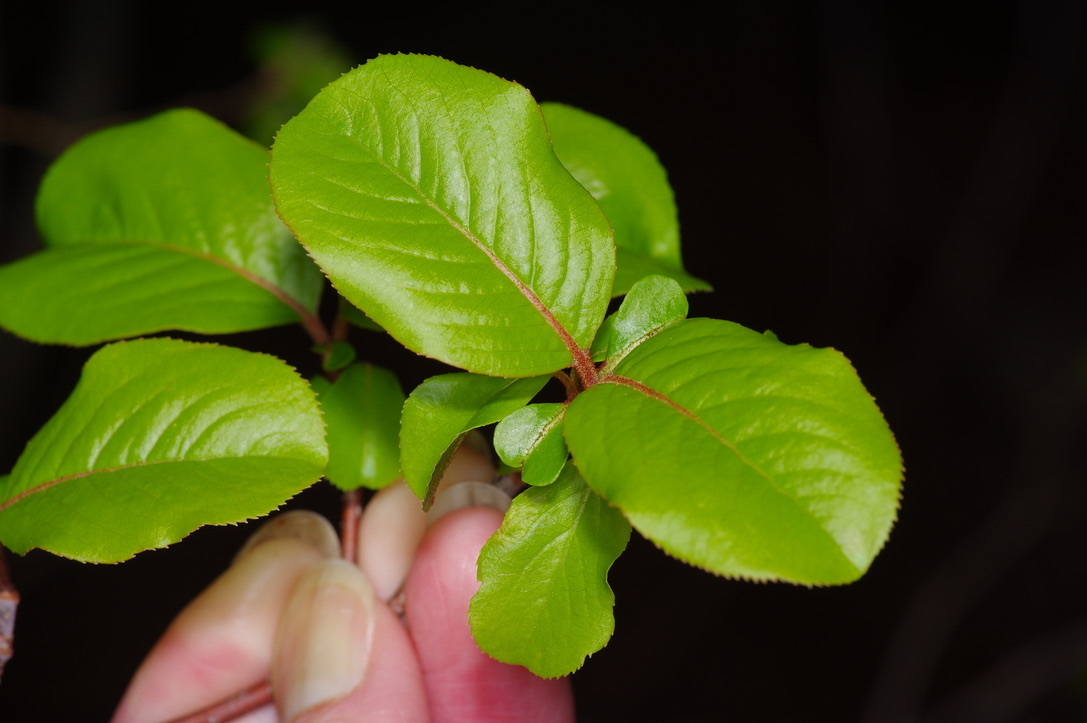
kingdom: Plantae
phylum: Tracheophyta
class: Magnoliopsida
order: Dipsacales
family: Viburnaceae
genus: Viburnum
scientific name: Viburnum rufidulum
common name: Blue haw
